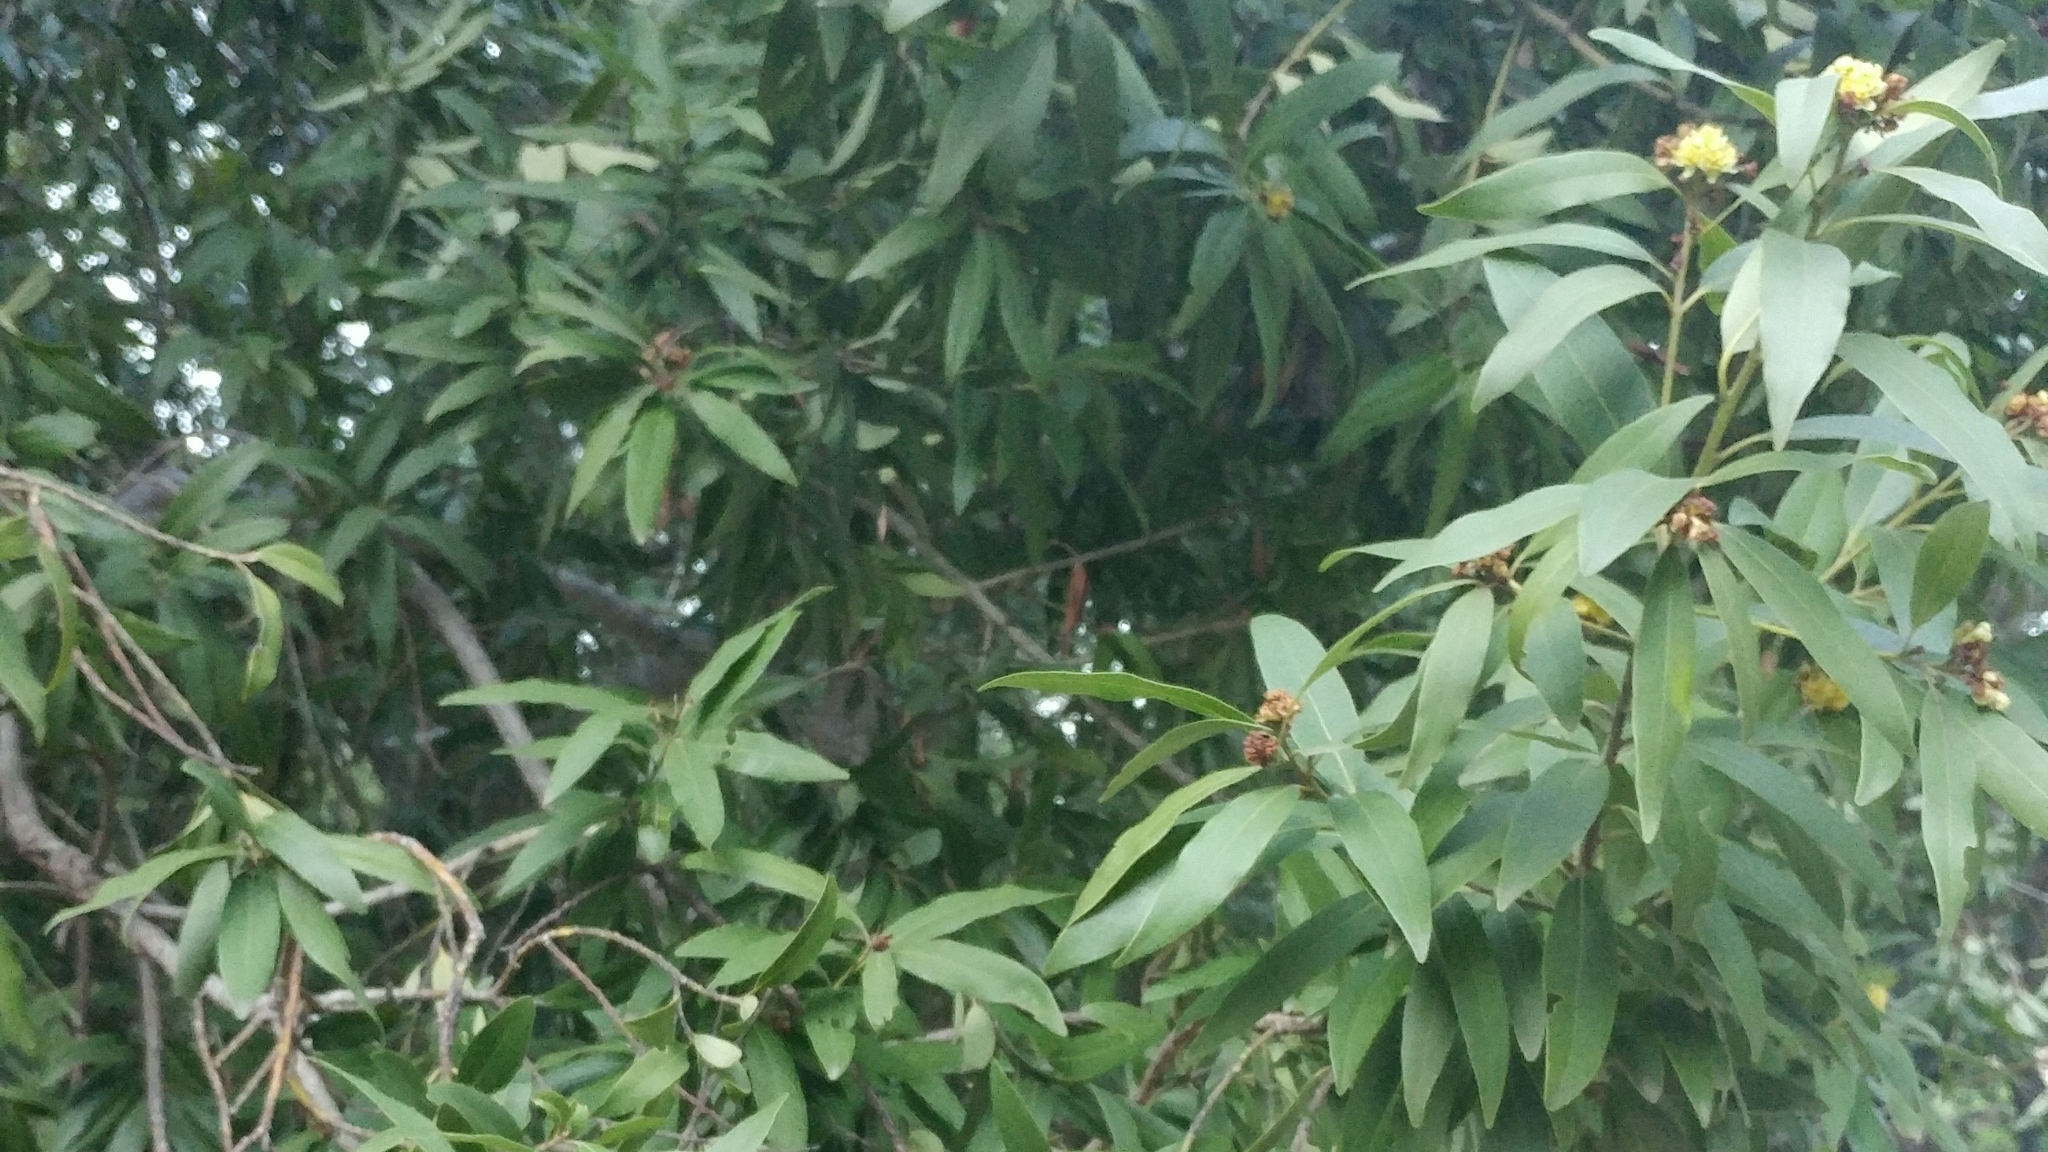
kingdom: Plantae
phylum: Tracheophyta
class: Magnoliopsida
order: Laurales
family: Lauraceae
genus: Umbellularia
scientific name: Umbellularia californica
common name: California bay
